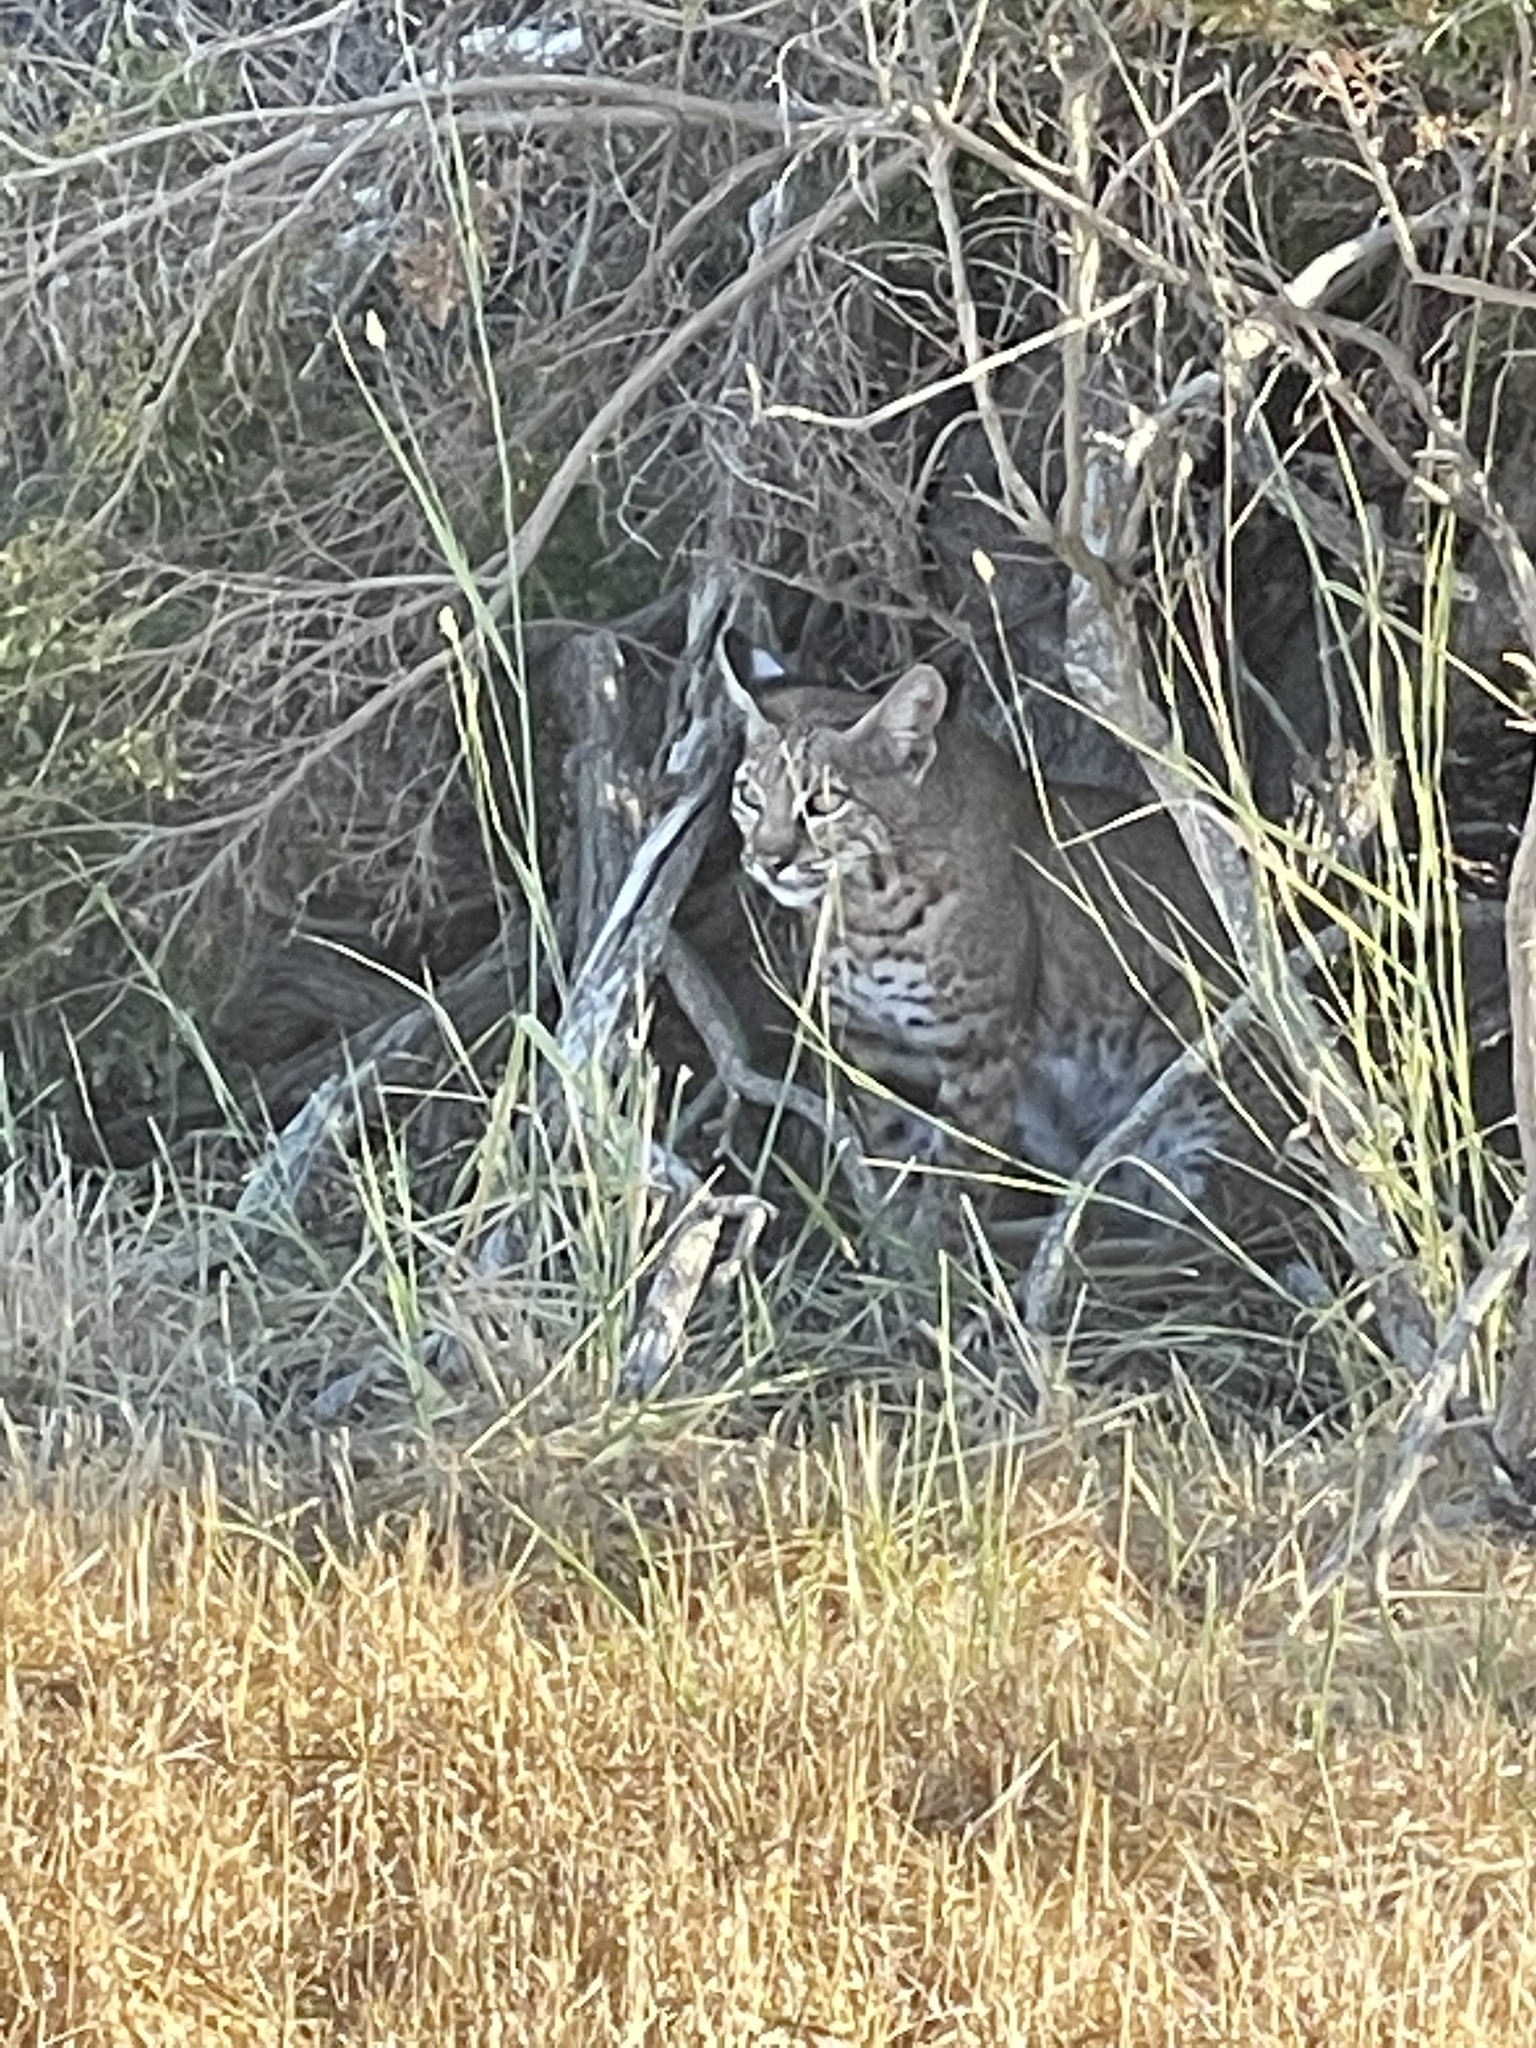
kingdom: Animalia
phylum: Chordata
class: Mammalia
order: Carnivora
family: Felidae
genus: Lynx
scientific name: Lynx rufus
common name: Bobcat
